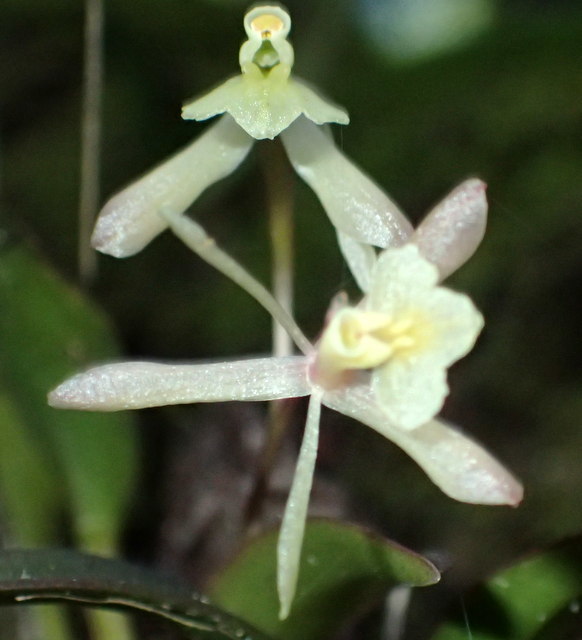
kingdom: Plantae
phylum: Tracheophyta
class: Liliopsida
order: Asparagales
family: Orchidaceae
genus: Epidendrum
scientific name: Epidendrum conopseum
